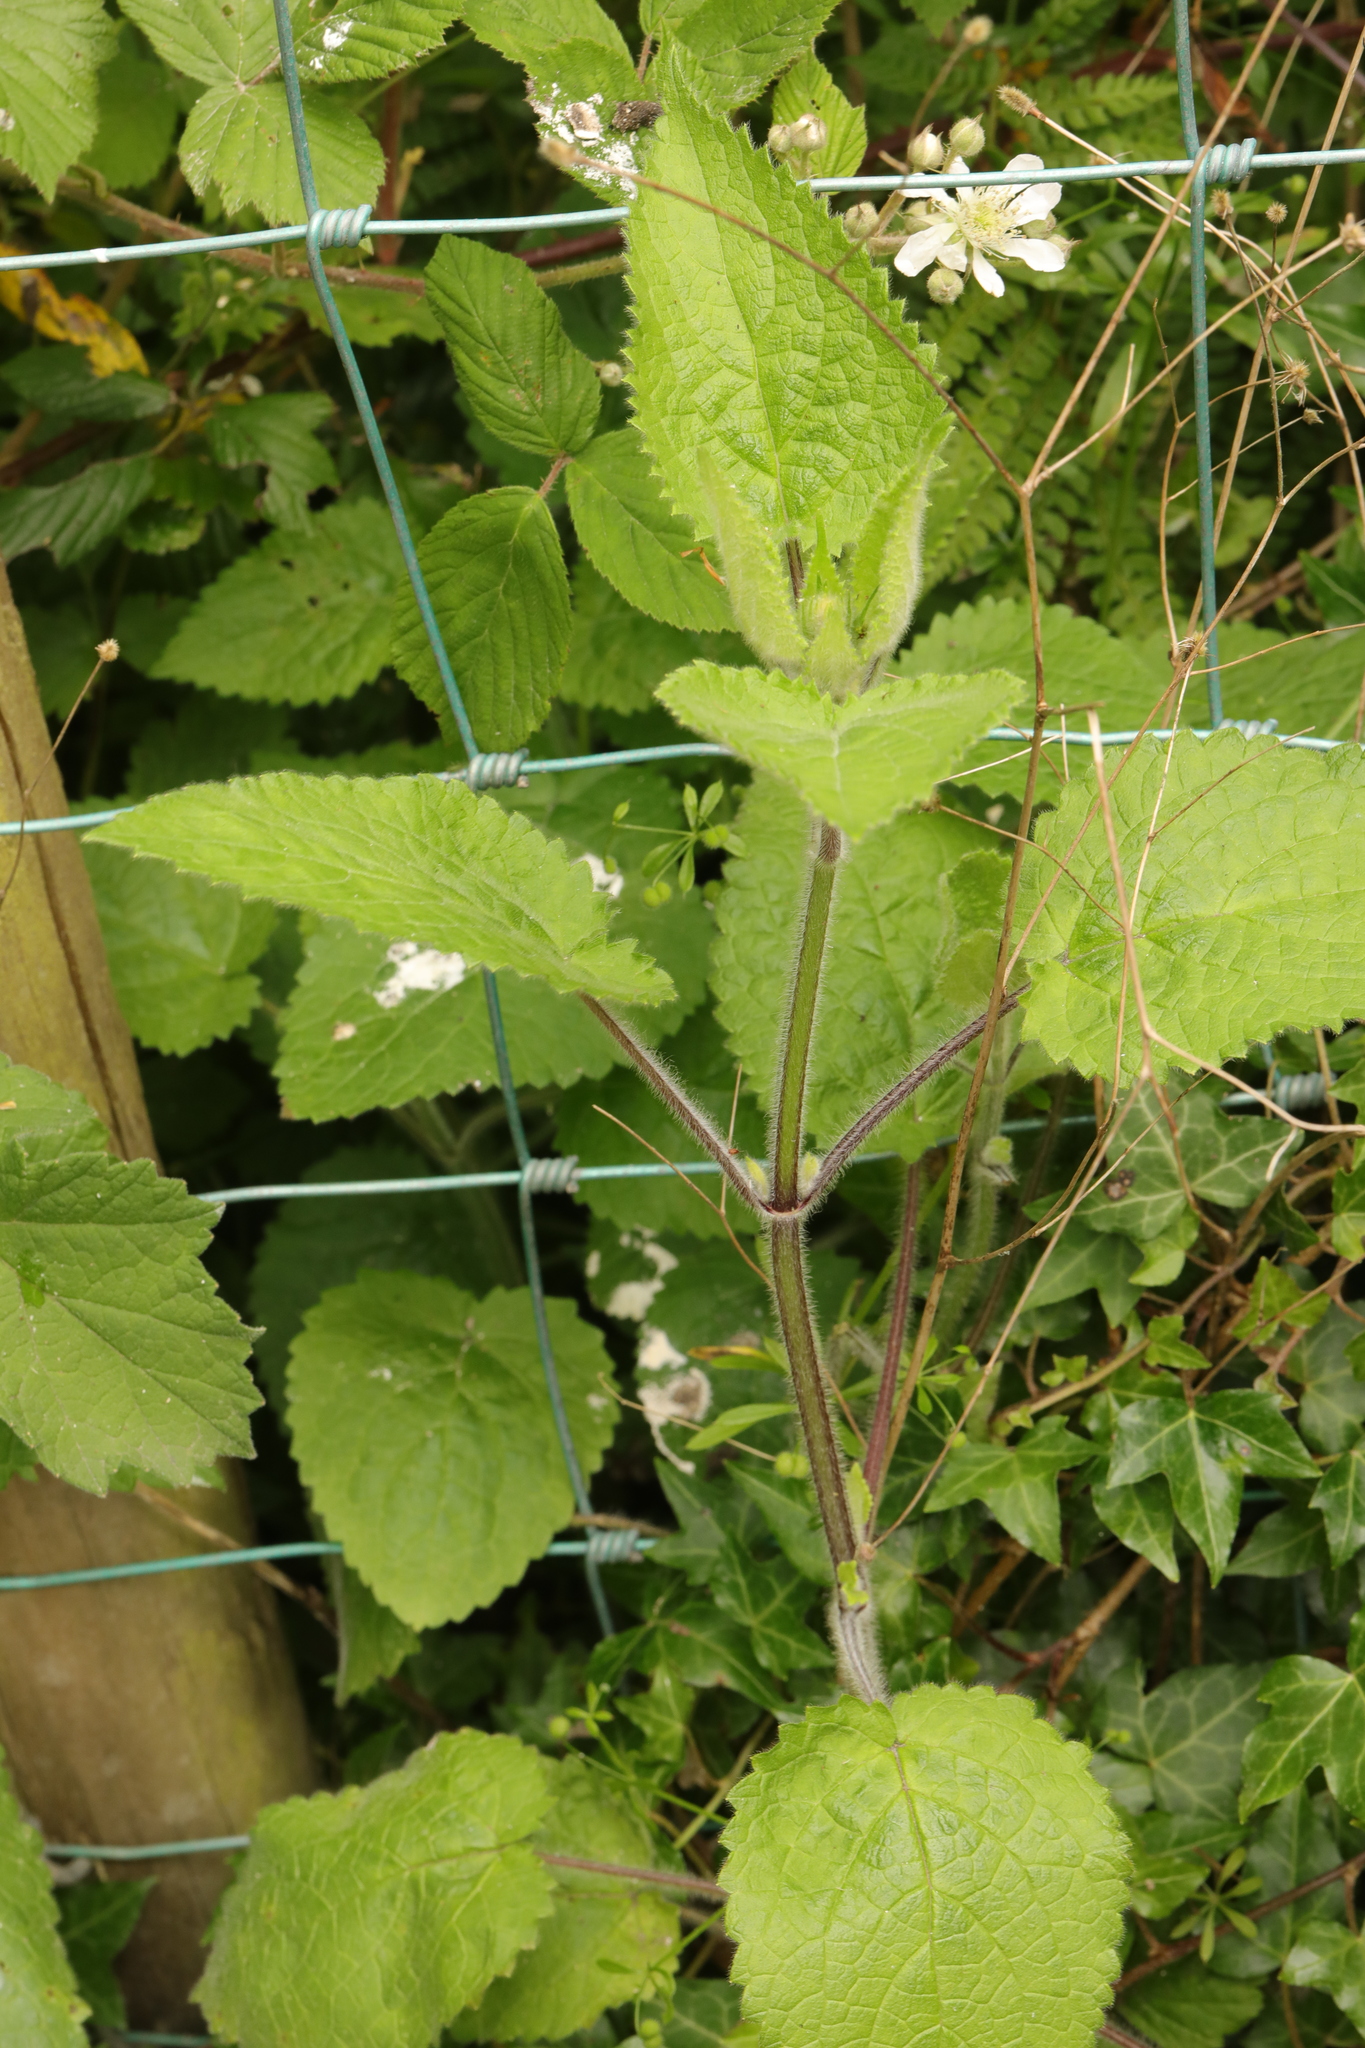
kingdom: Plantae
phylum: Tracheophyta
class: Magnoliopsida
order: Lamiales
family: Lamiaceae
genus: Stachys
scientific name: Stachys sylvatica
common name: Hedge woundwort
